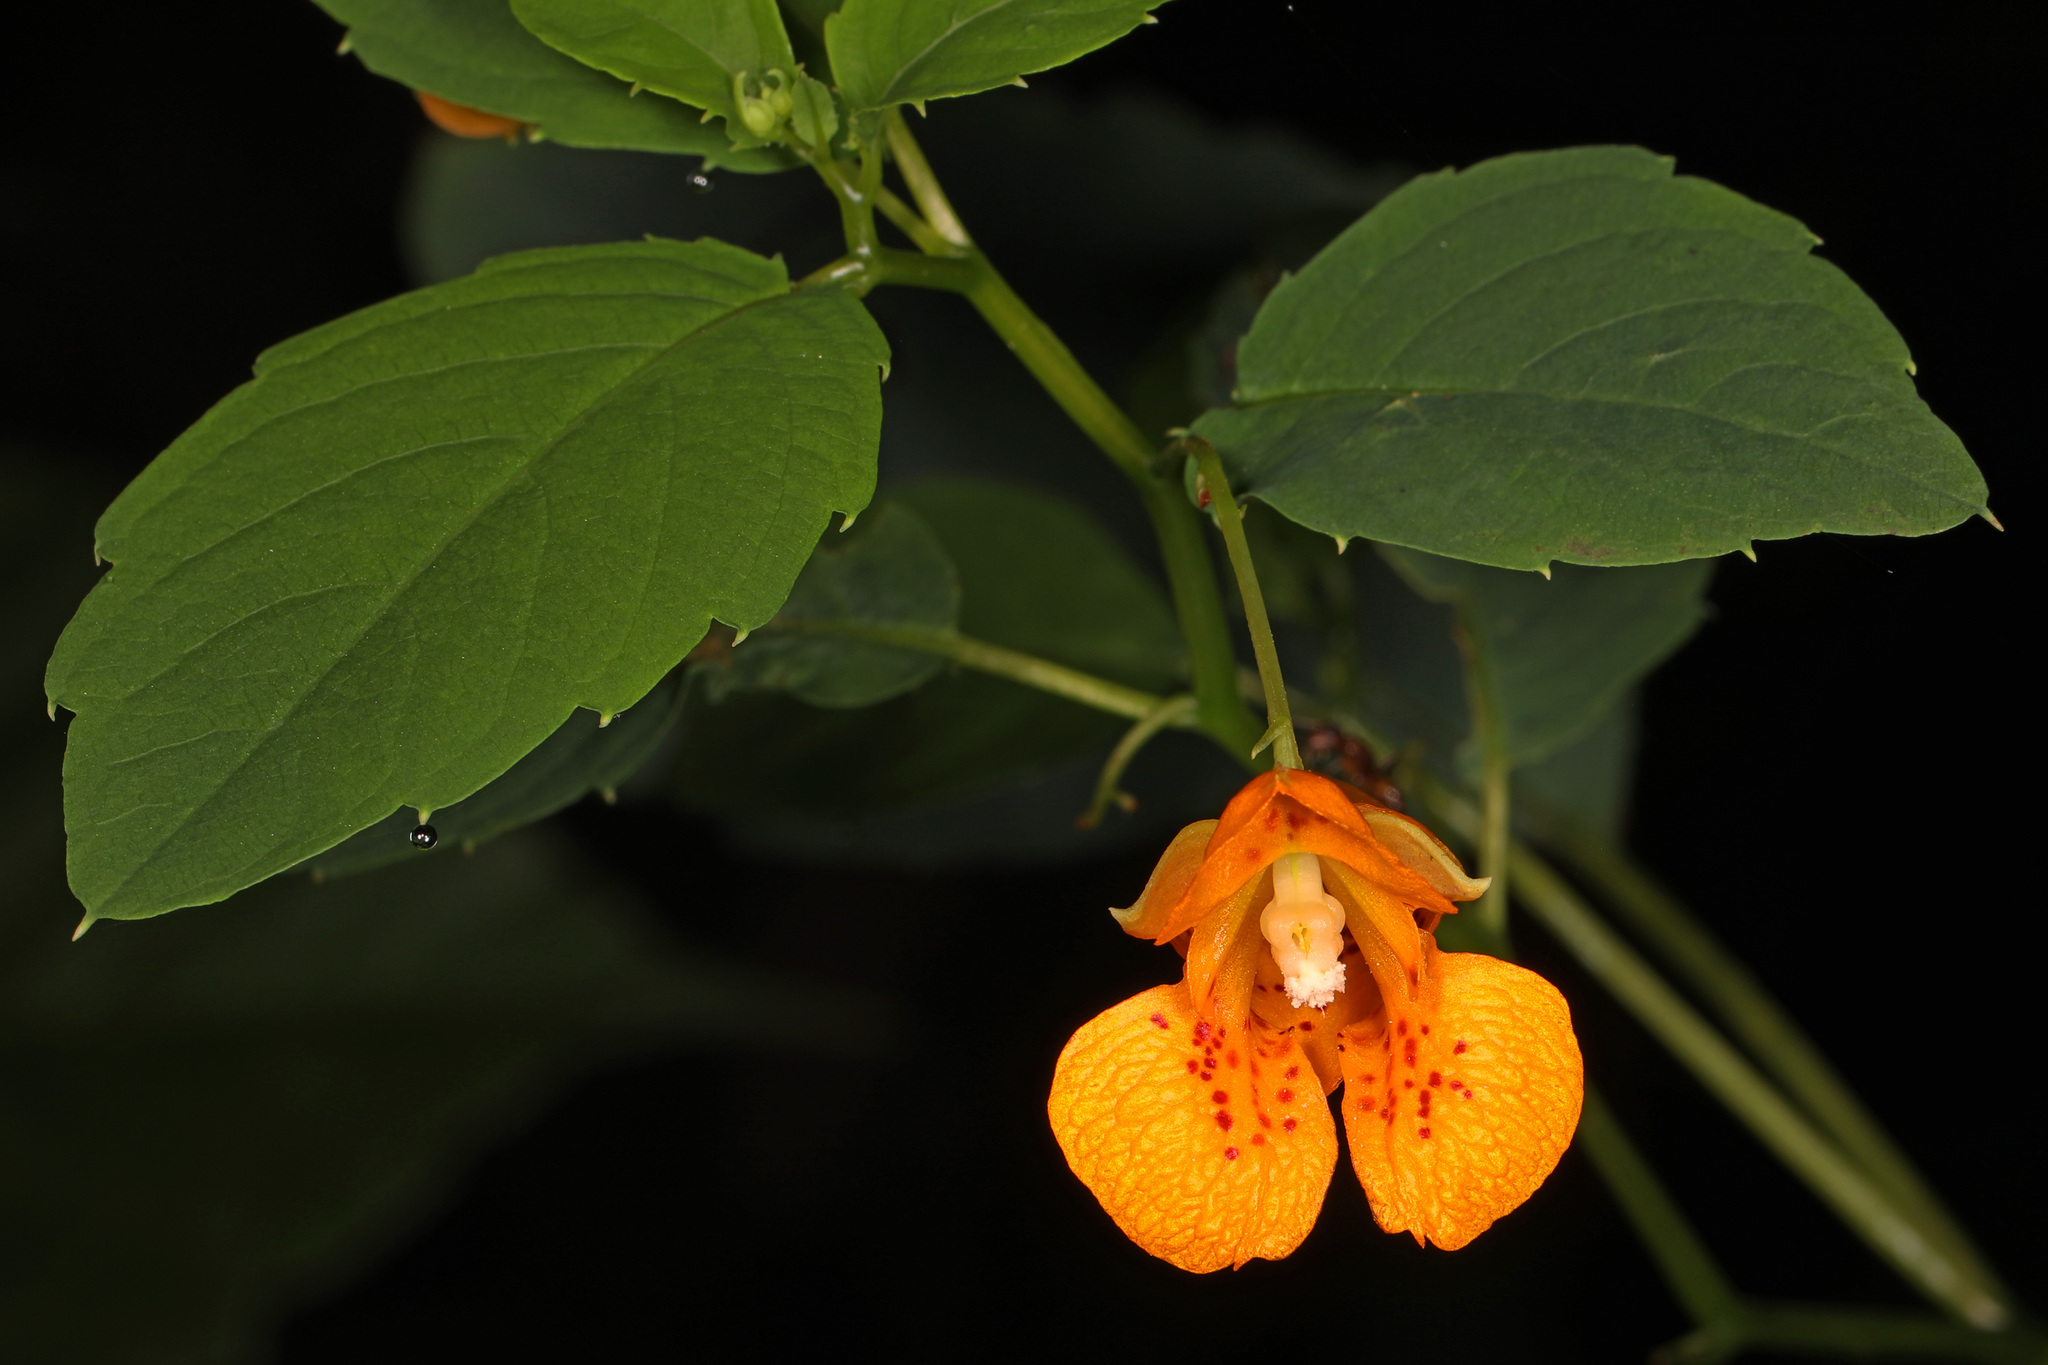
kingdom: Plantae
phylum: Tracheophyta
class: Magnoliopsida
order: Ericales
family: Balsaminaceae
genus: Impatiens
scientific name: Impatiens capensis
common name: Orange balsam
